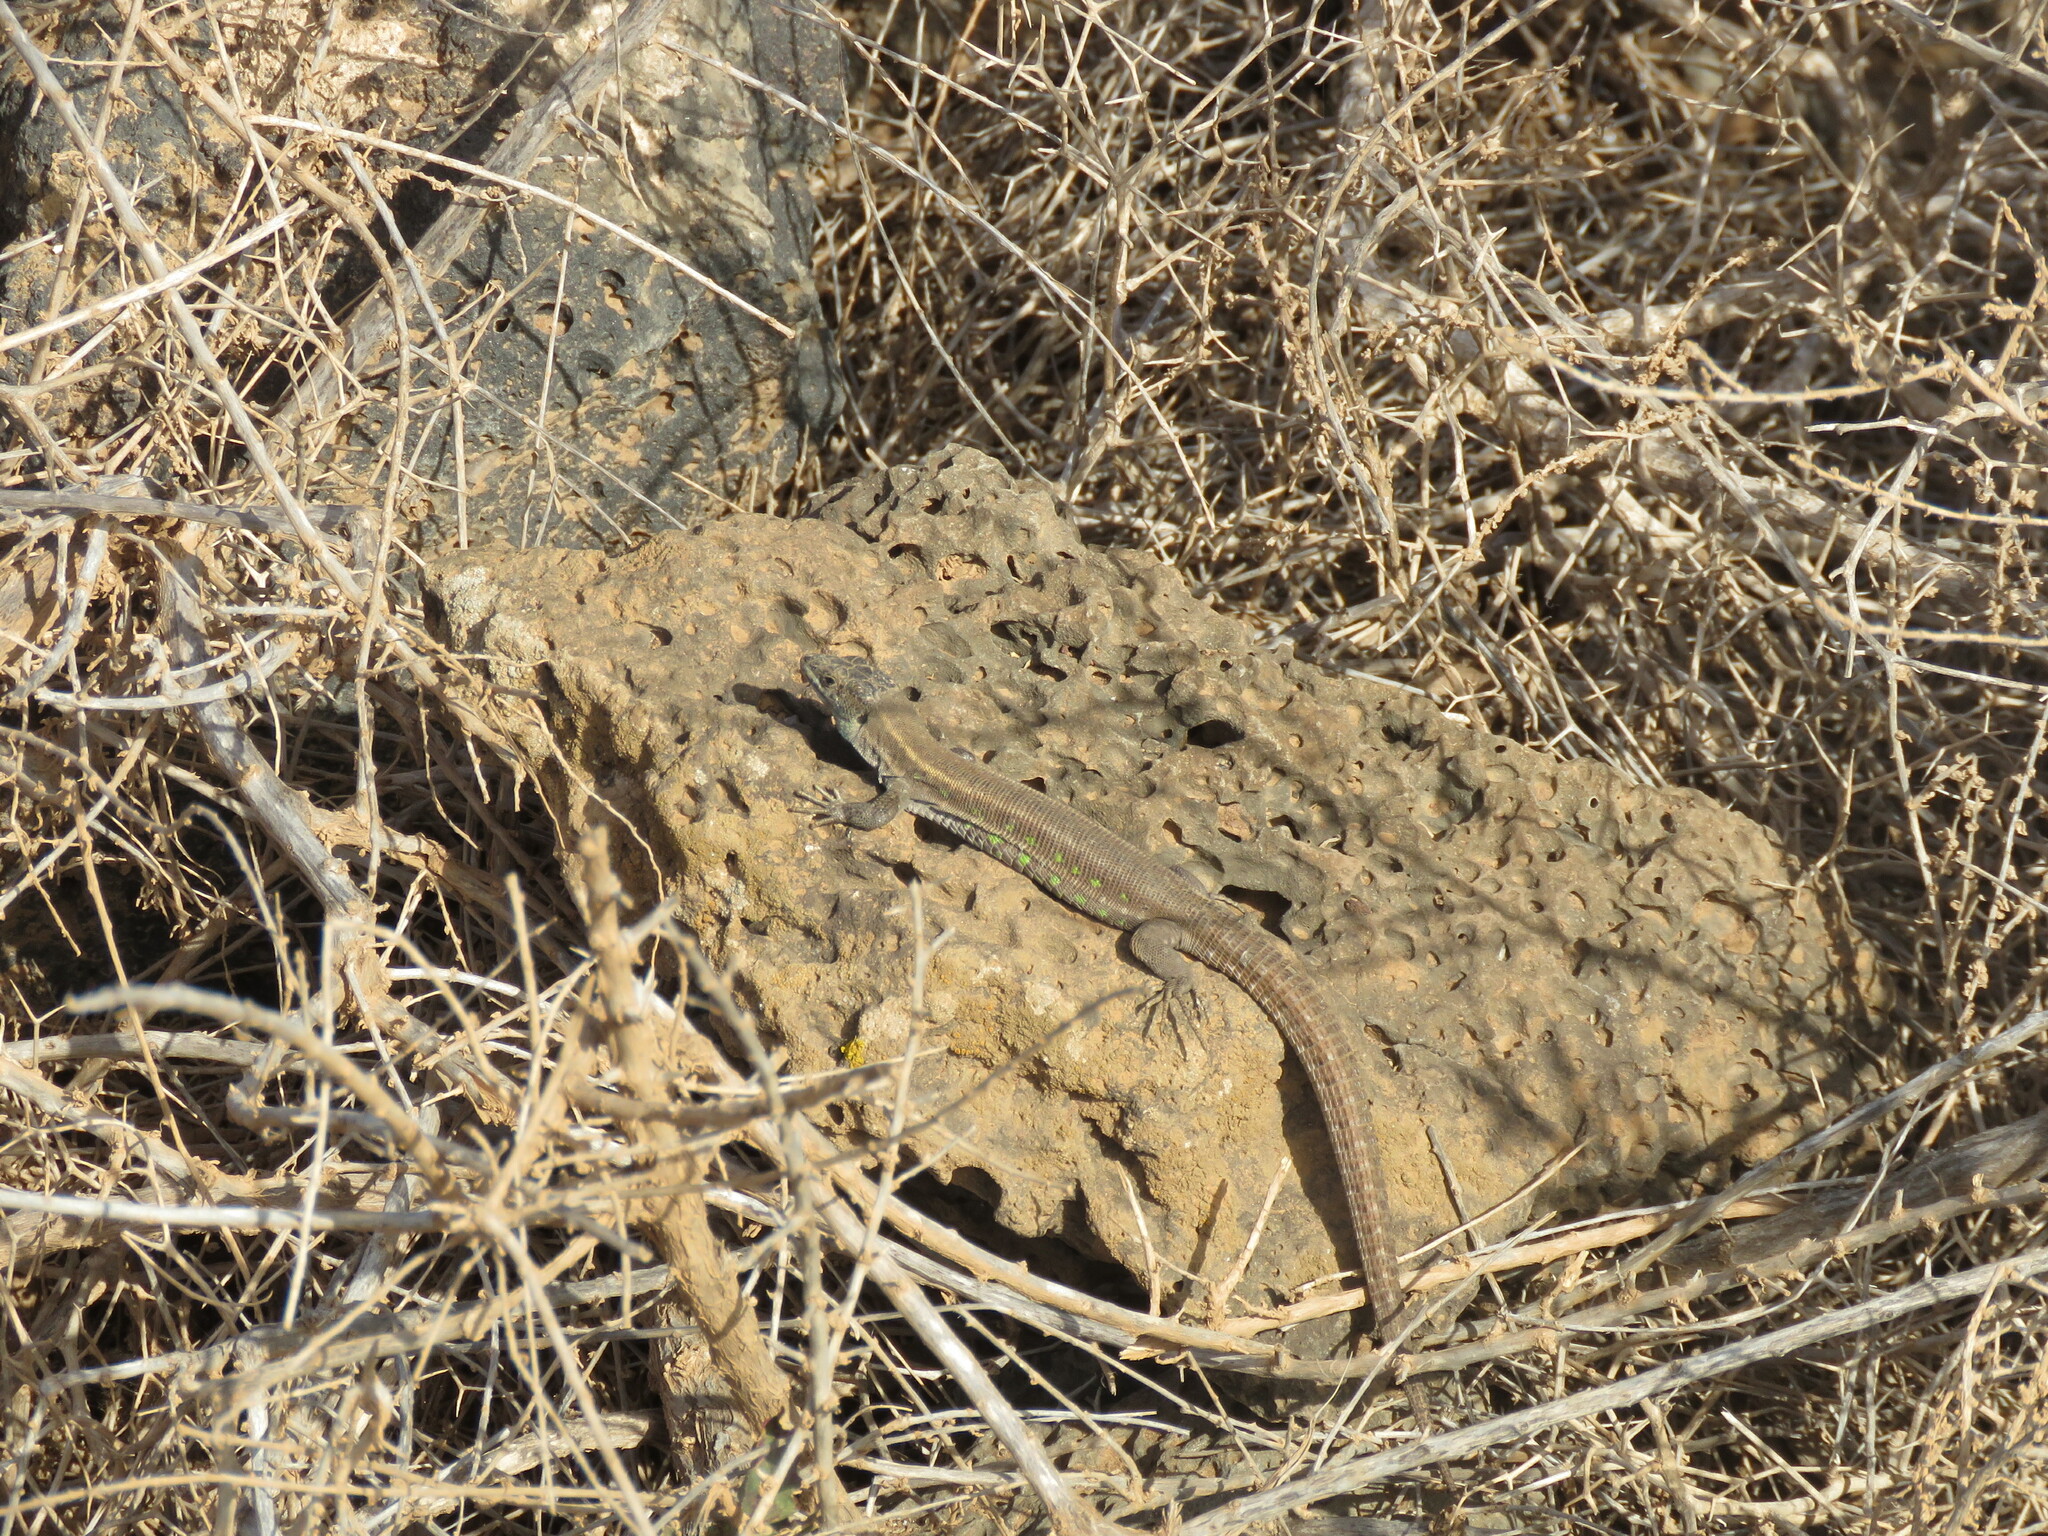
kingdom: Animalia
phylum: Chordata
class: Squamata
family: Lacertidae
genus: Gallotia
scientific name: Gallotia atlantica
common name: Atlantic lizard
